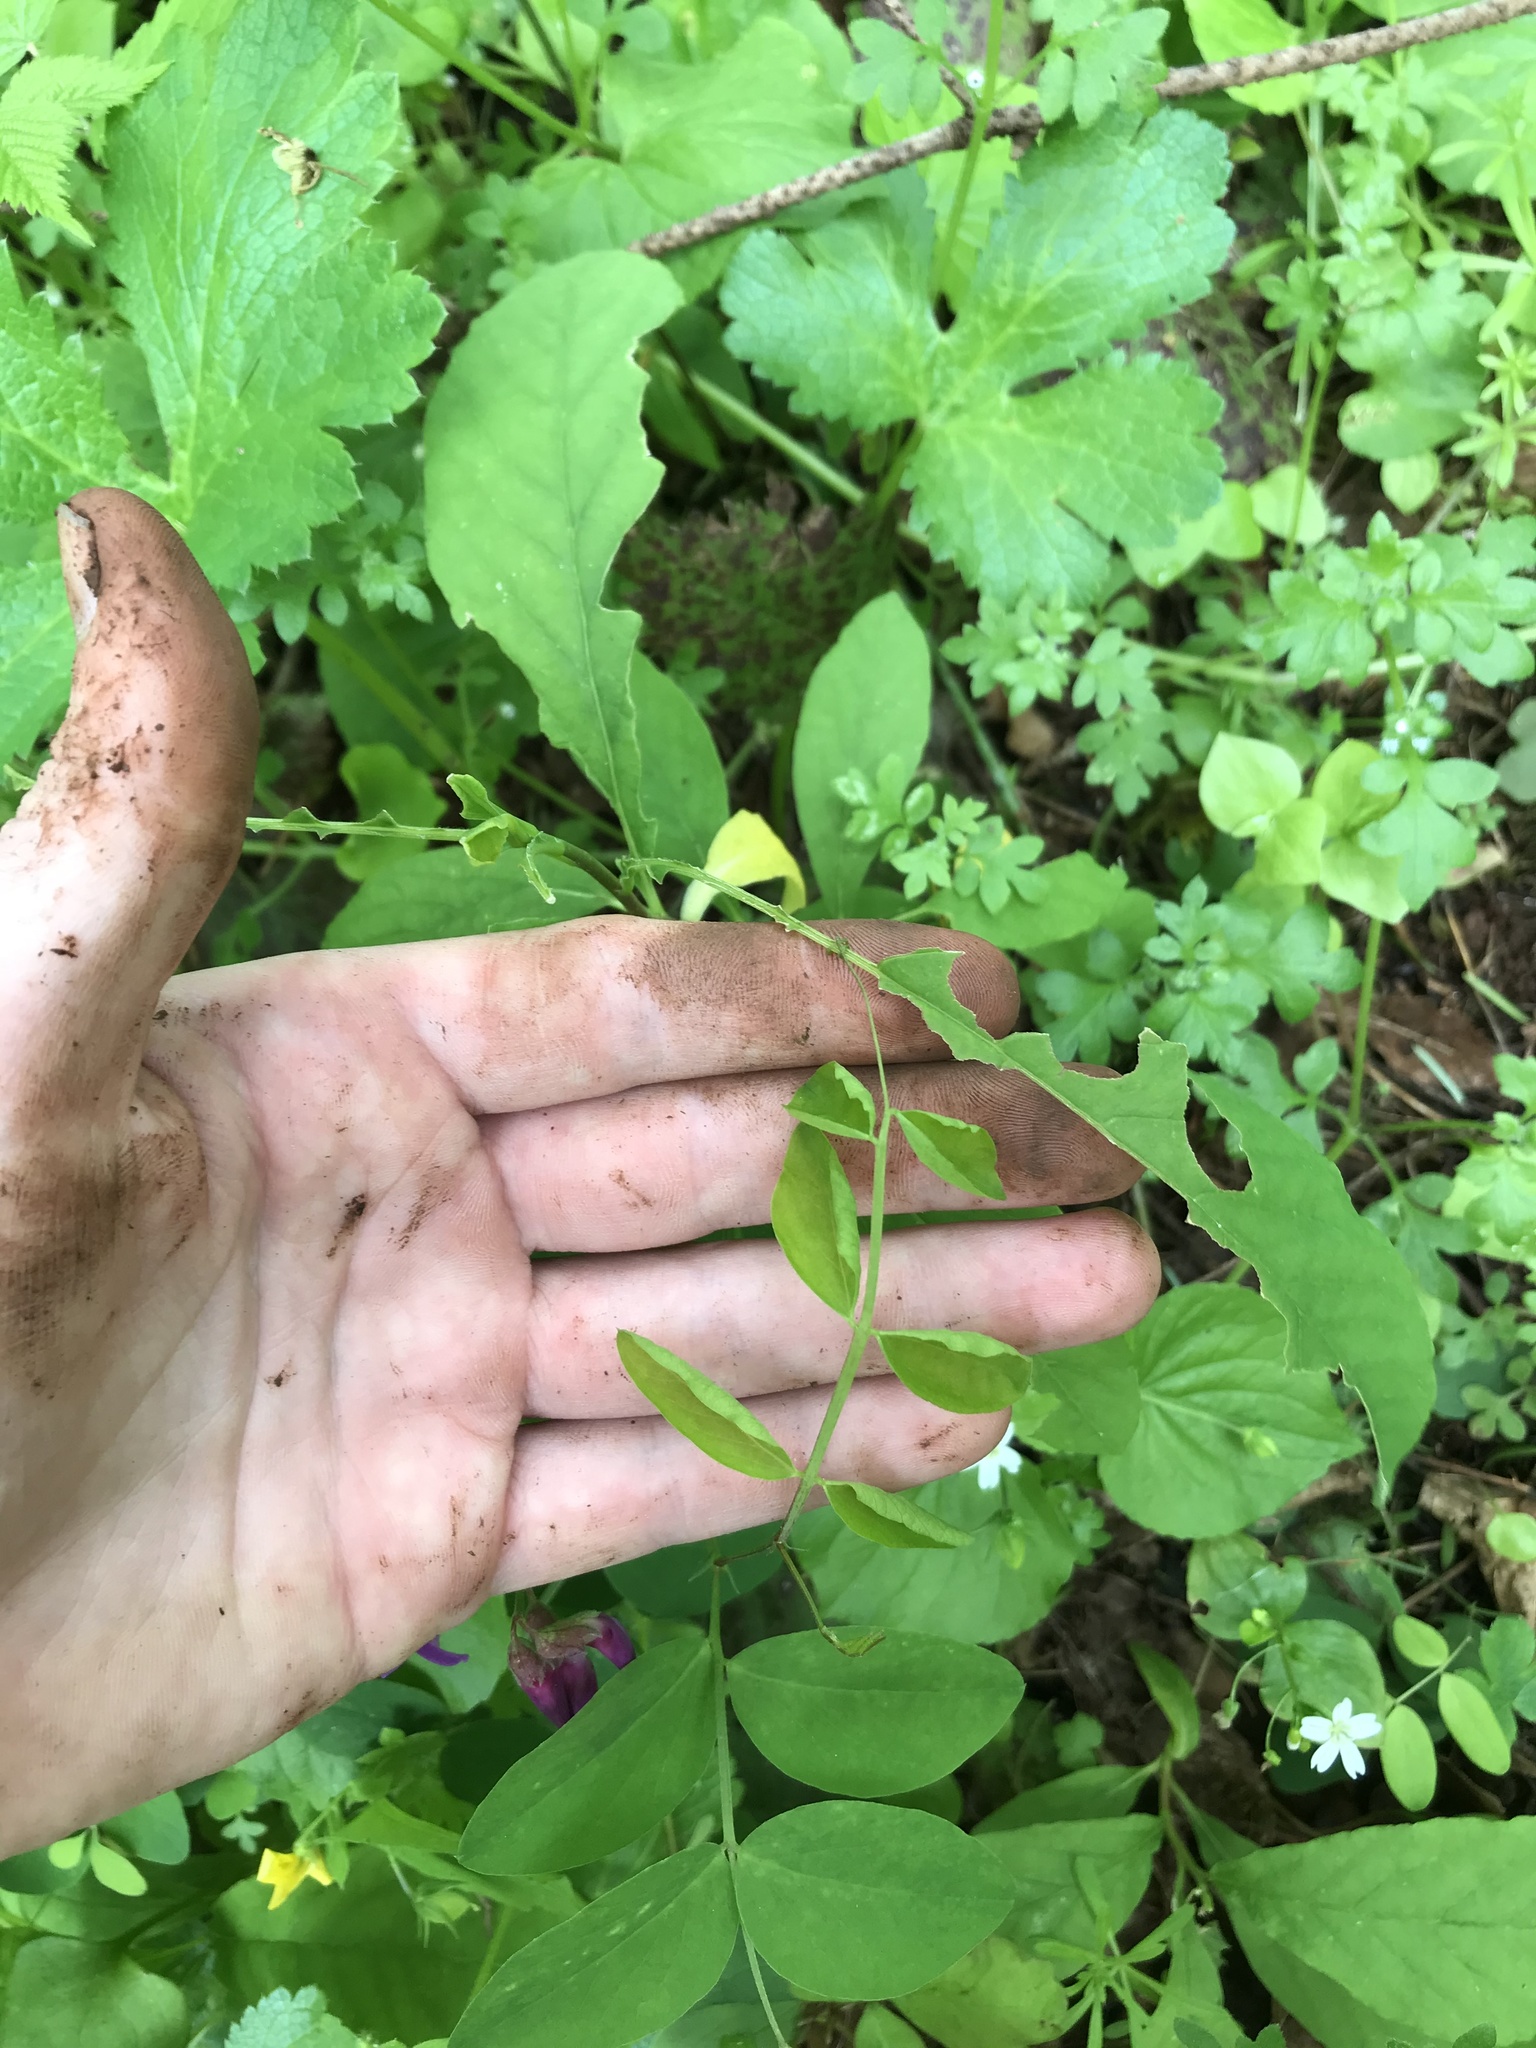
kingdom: Plantae
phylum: Tracheophyta
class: Magnoliopsida
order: Fabales
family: Fabaceae
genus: Lathyrus
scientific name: Lathyrus nevadensis
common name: Sierra nevada peavine
